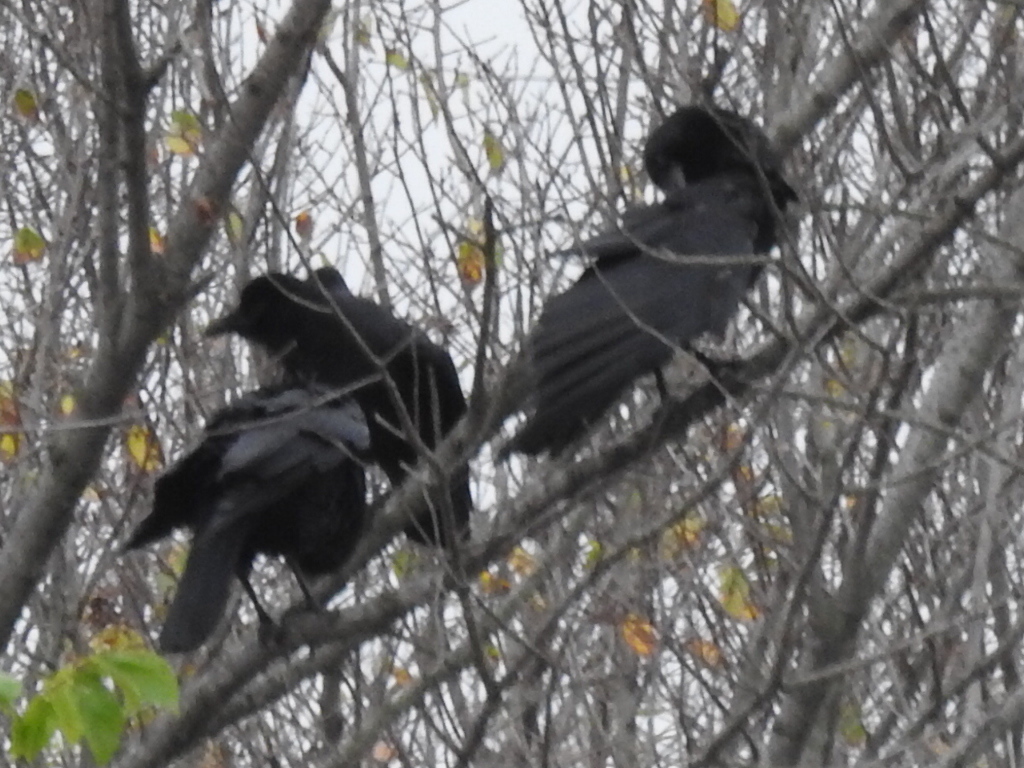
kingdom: Animalia
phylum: Chordata
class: Aves
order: Passeriformes
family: Corvidae
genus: Corvus
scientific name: Corvus brachyrhynchos
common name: American crow
